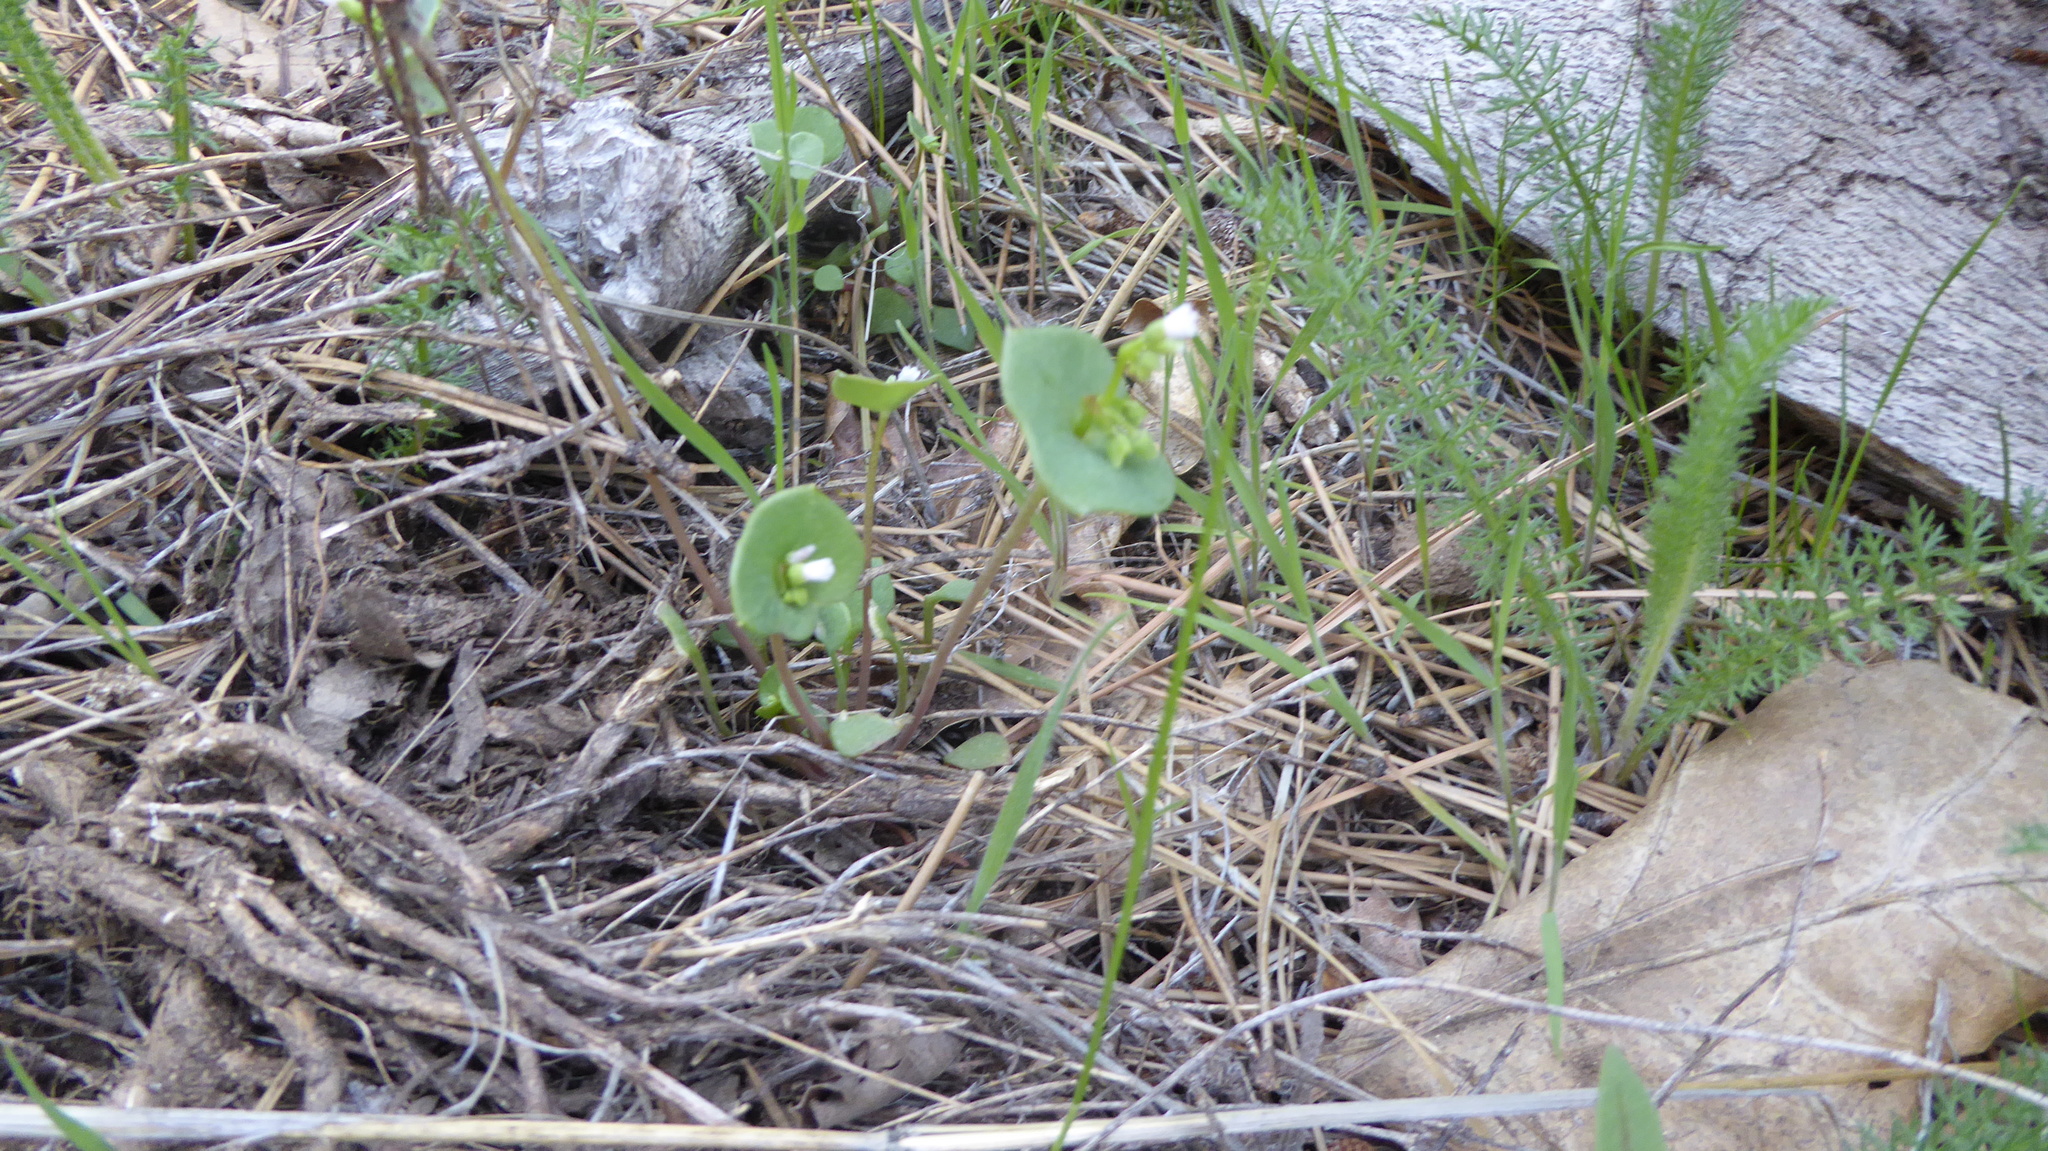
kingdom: Plantae
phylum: Tracheophyta
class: Magnoliopsida
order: Caryophyllales
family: Montiaceae
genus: Claytonia
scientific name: Claytonia perfoliata
